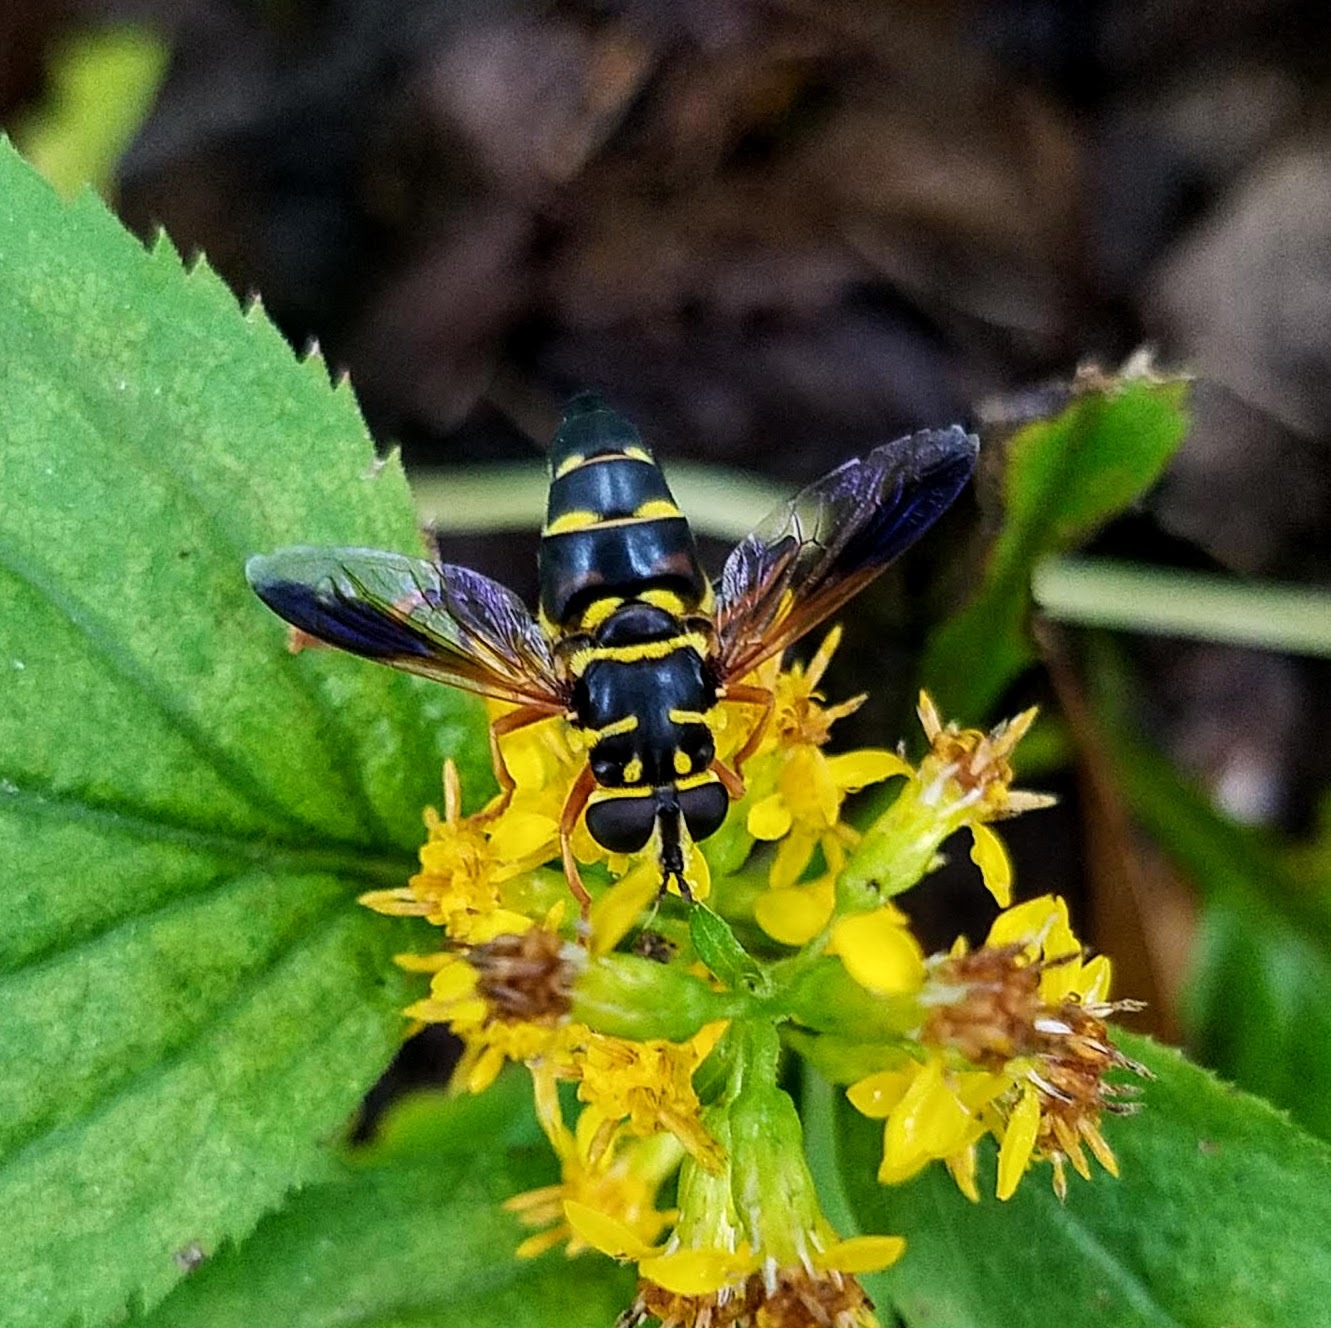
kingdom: Animalia
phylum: Arthropoda
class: Insecta
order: Diptera
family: Syrphidae
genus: Meromacrus
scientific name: Meromacrus acutus
